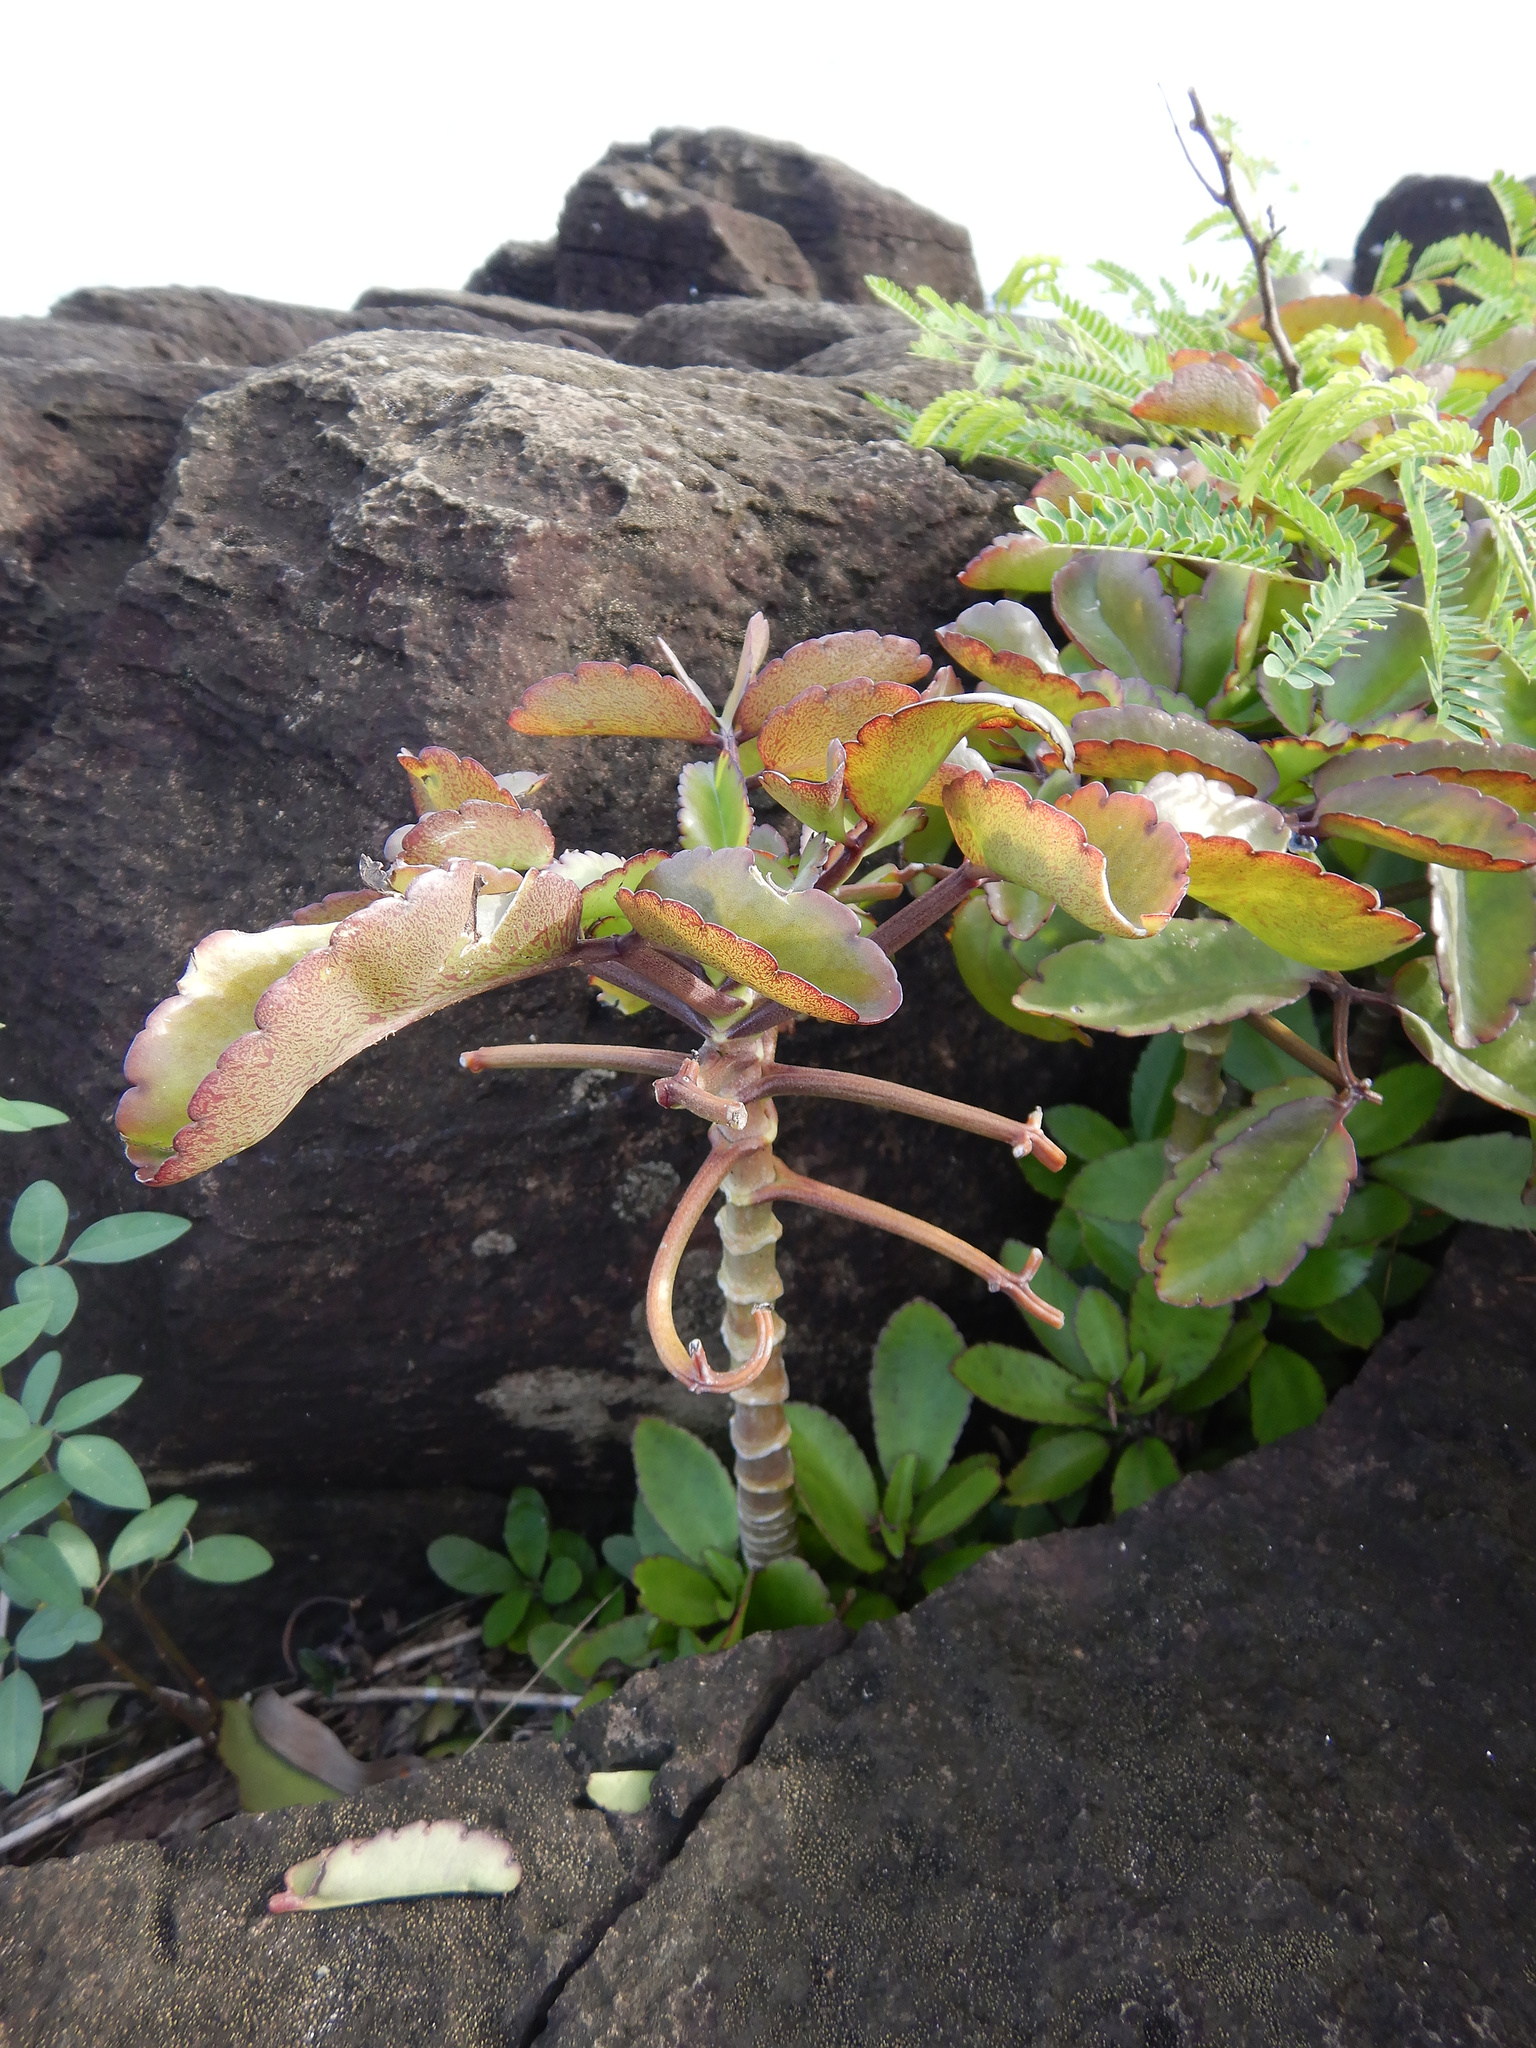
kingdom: Plantae
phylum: Tracheophyta
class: Magnoliopsida
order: Saxifragales
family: Crassulaceae
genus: Kalanchoe
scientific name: Kalanchoe pinnata
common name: Cathedral bells
